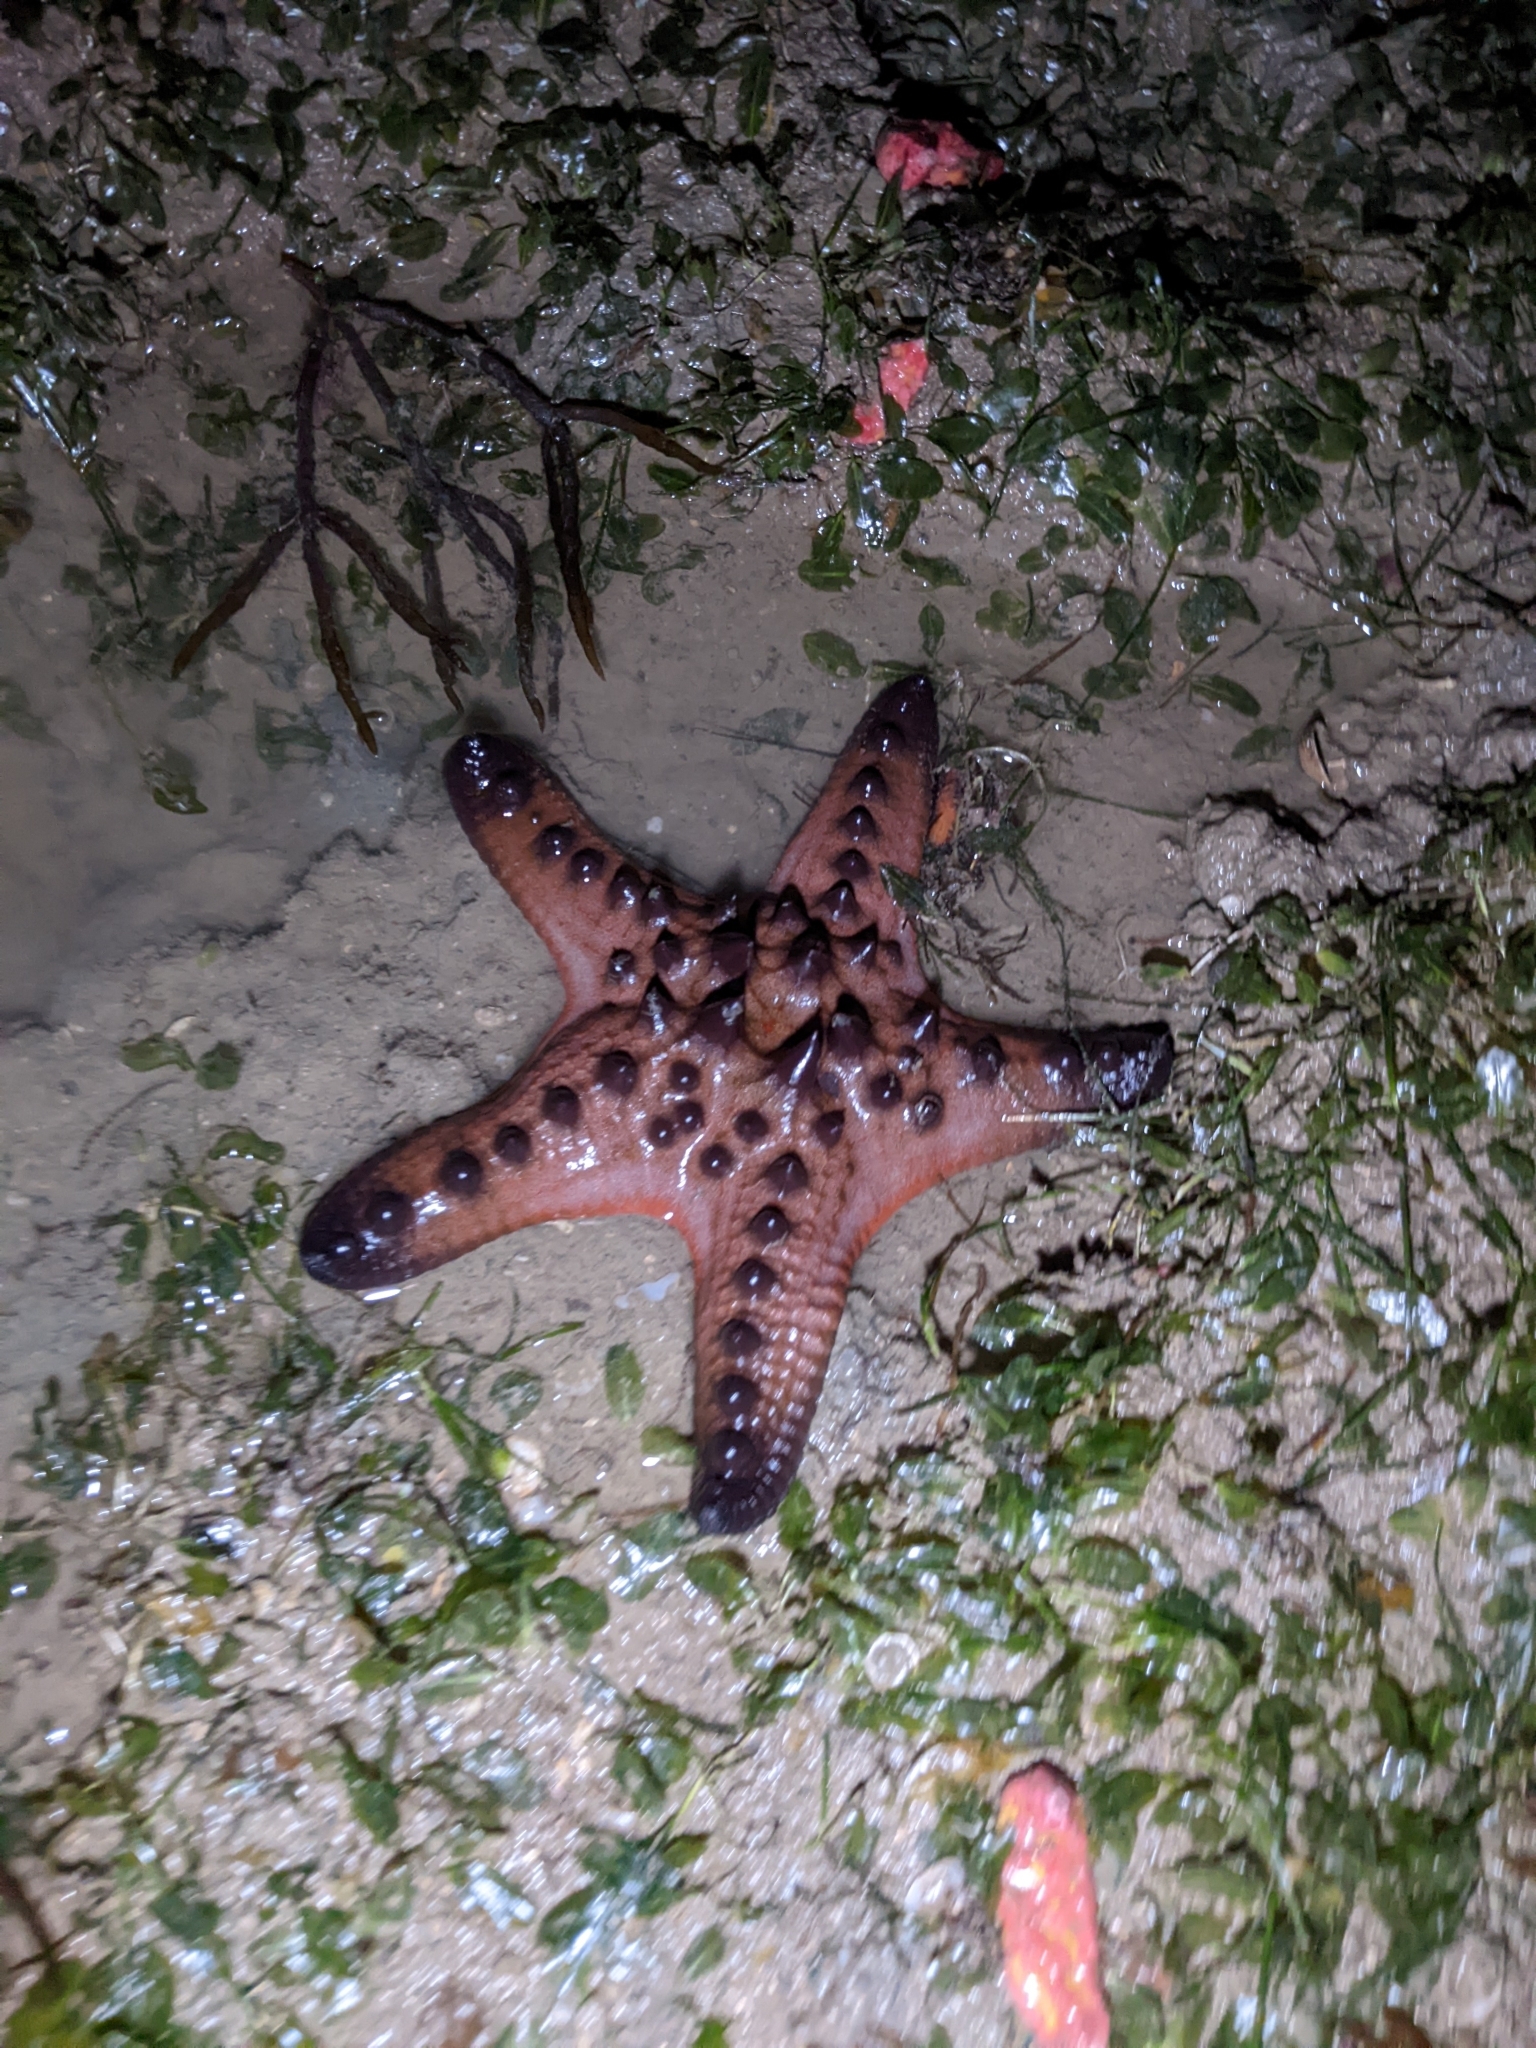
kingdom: Animalia
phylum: Echinodermata
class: Asteroidea
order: Valvatida
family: Oreasteridae
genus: Protoreaster
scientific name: Protoreaster nodosus
